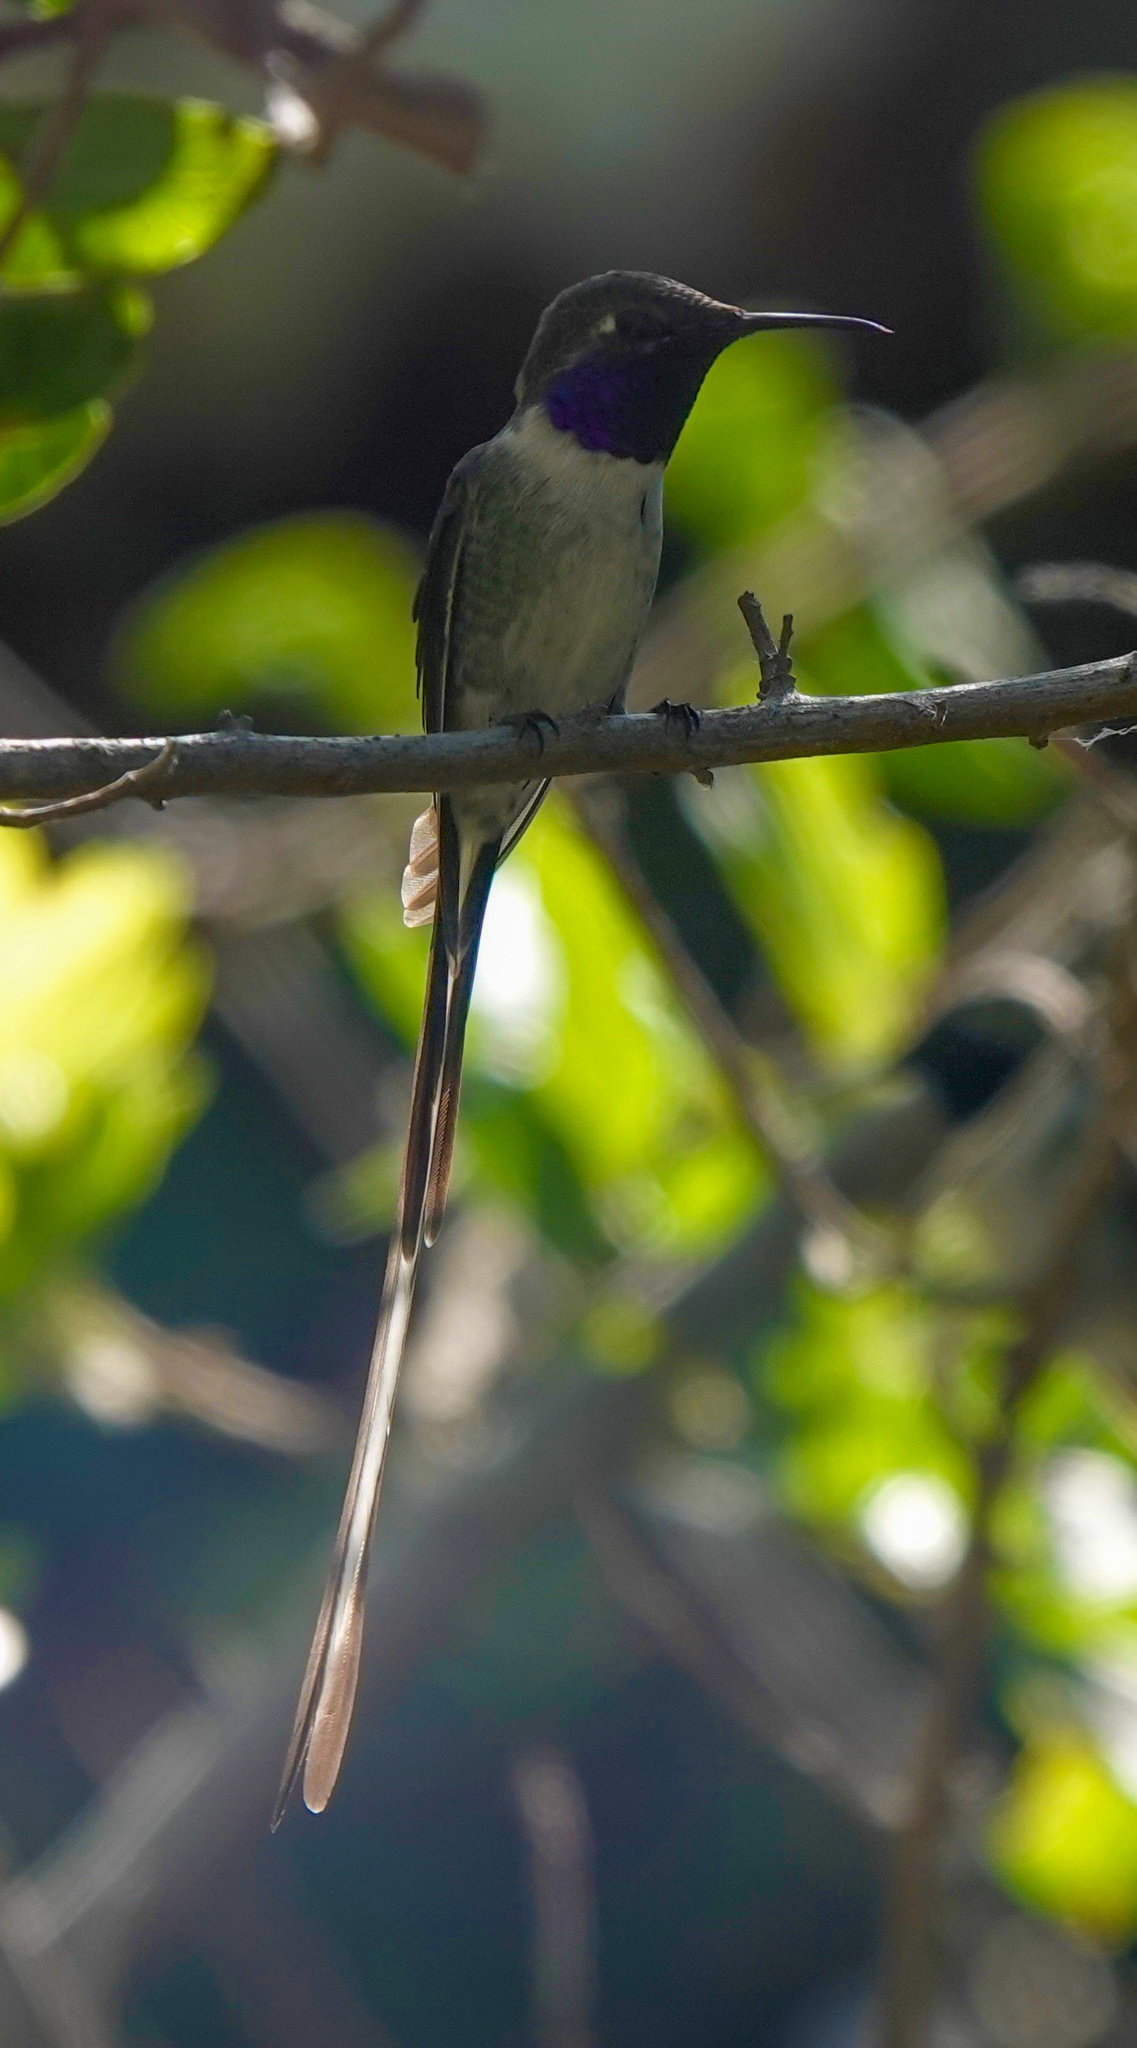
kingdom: Animalia
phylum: Chordata
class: Aves
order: Apodiformes
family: Trochilidae
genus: Thaumastura
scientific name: Thaumastura cora
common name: Peruvian sheartail
